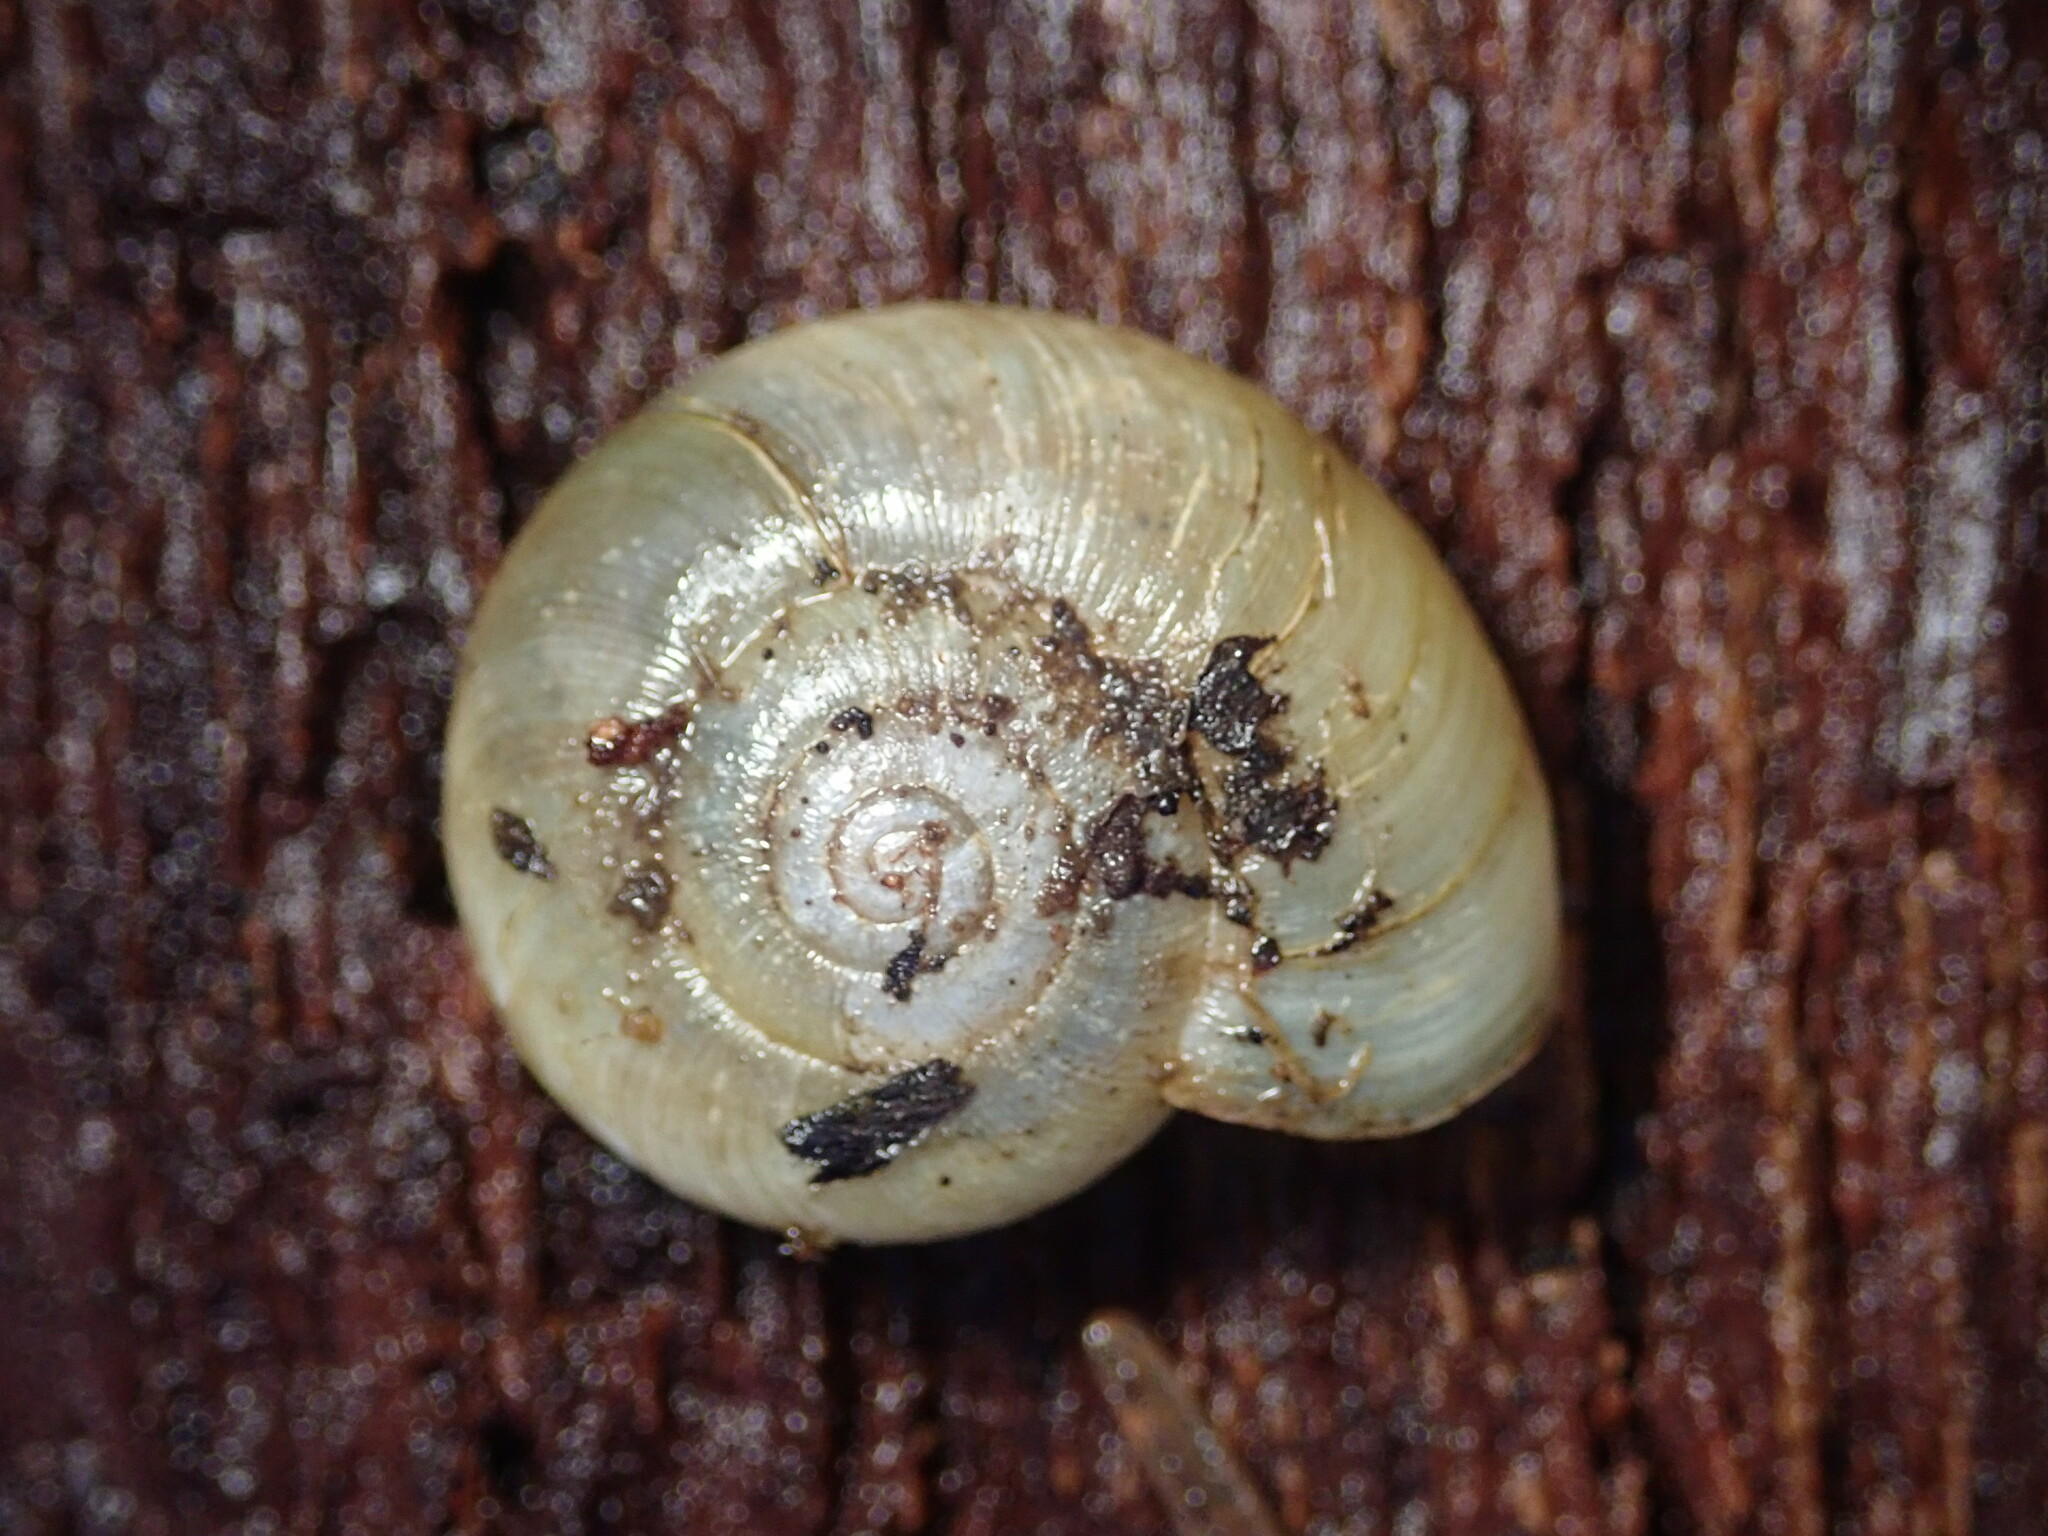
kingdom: Animalia
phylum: Mollusca
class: Gastropoda
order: Stylommatophora
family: Haplotrematidae
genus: Haplotrema
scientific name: Haplotrema minimum
